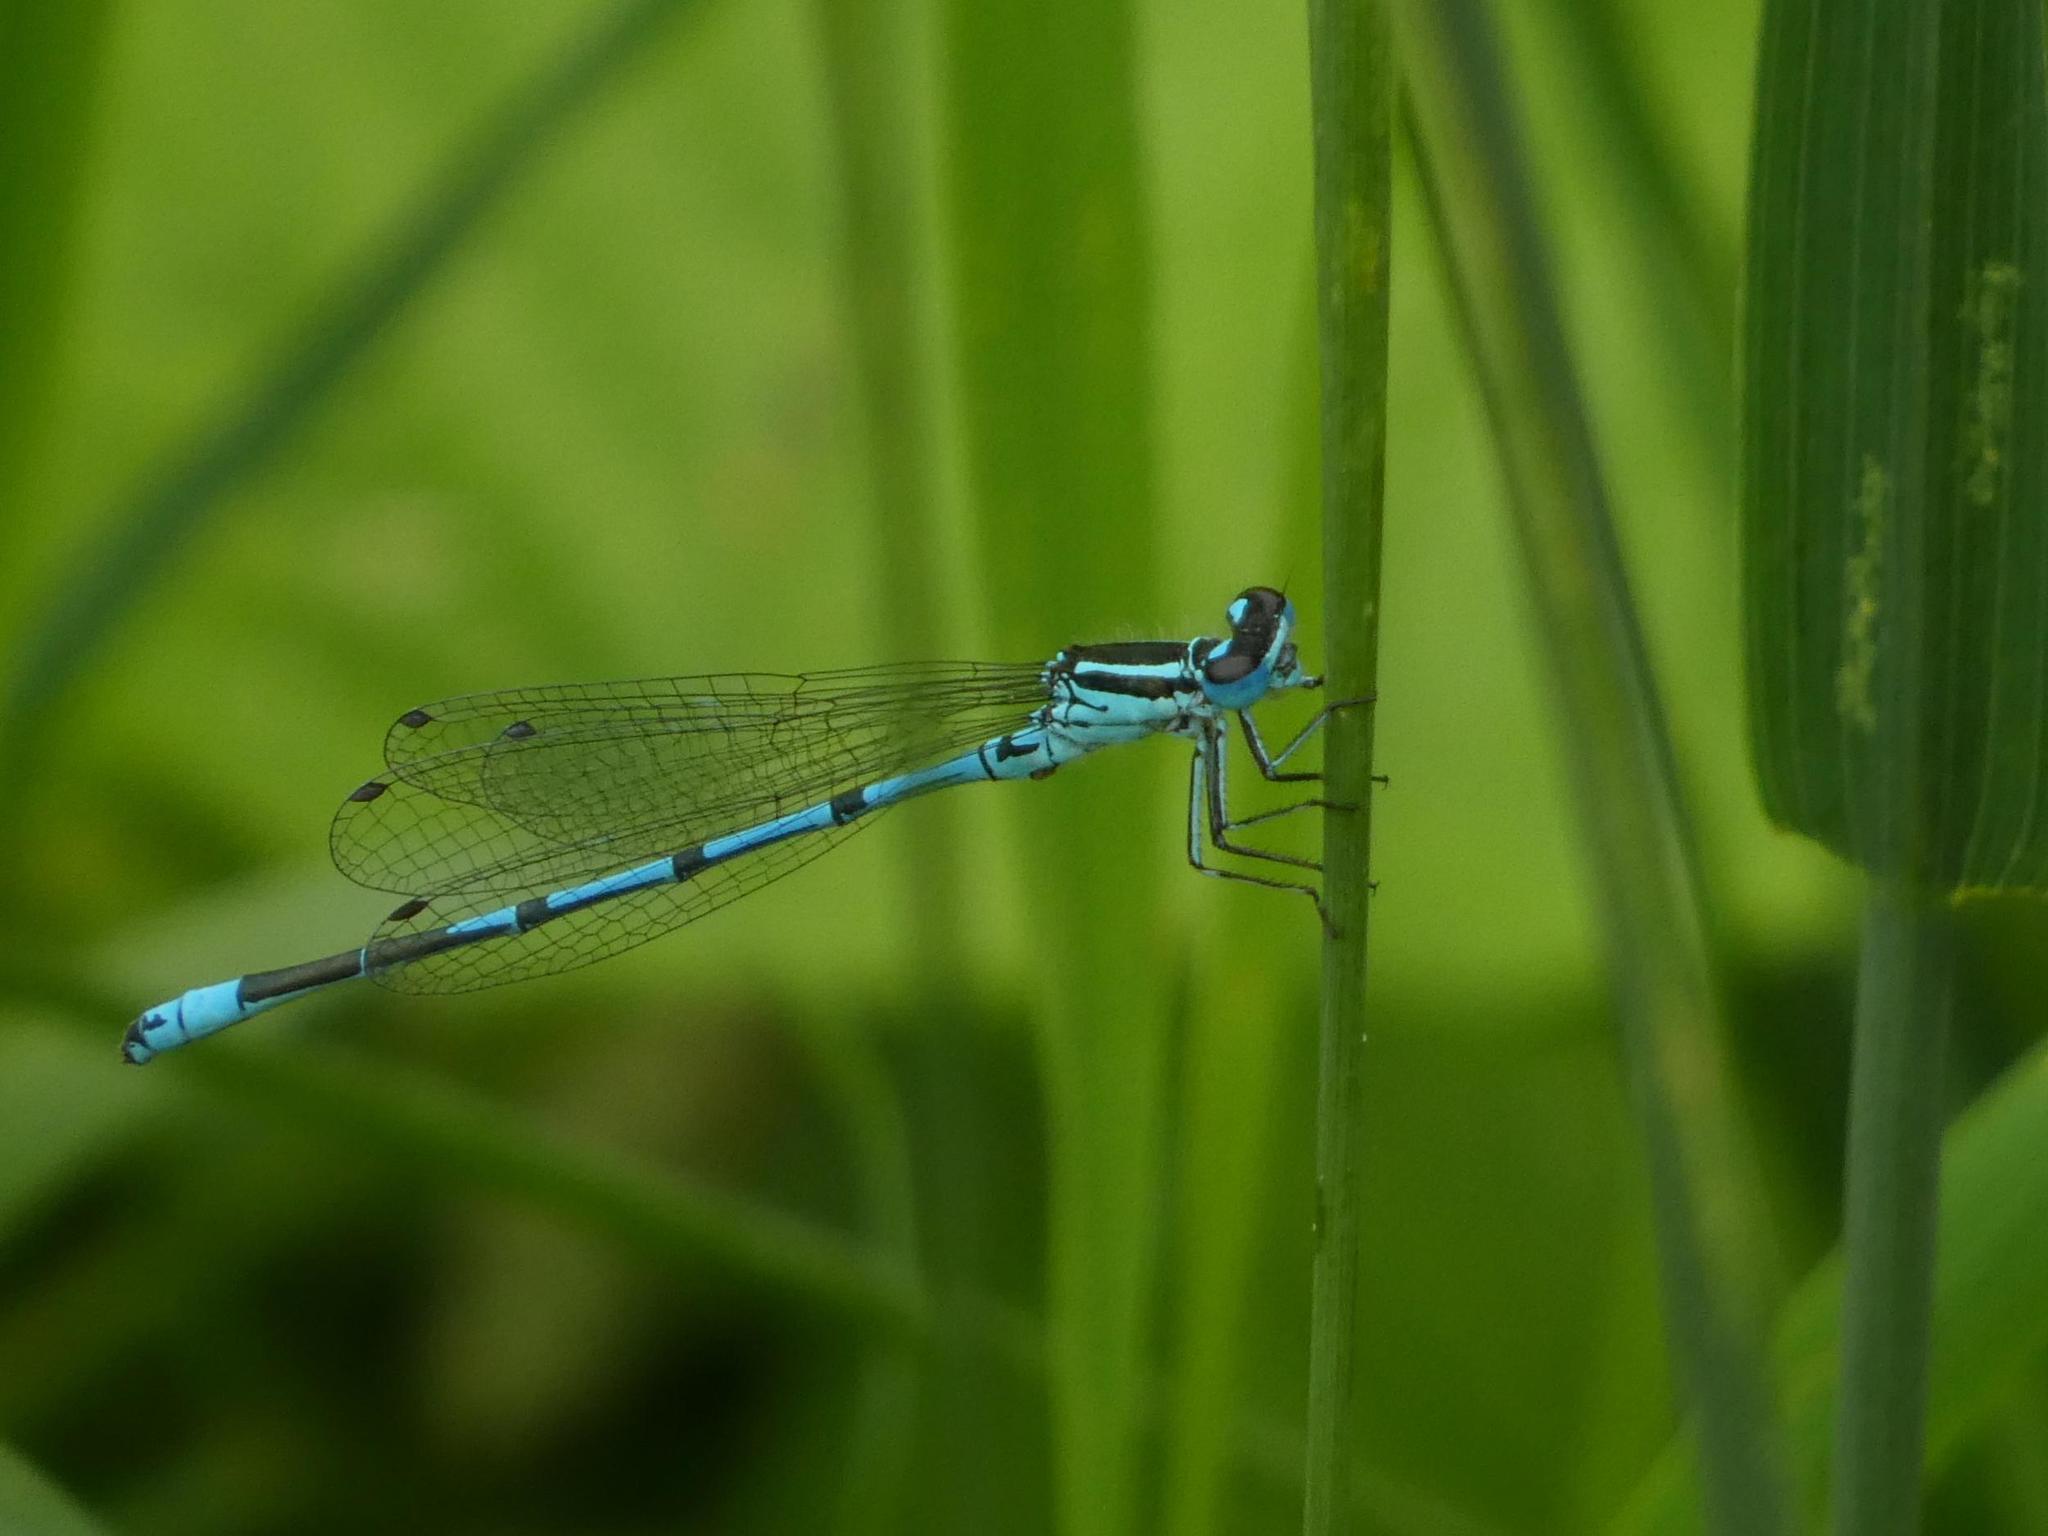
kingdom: Animalia
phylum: Arthropoda
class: Insecta
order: Odonata
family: Coenagrionidae
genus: Coenagrion
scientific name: Coenagrion puella
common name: Azure damselfly
